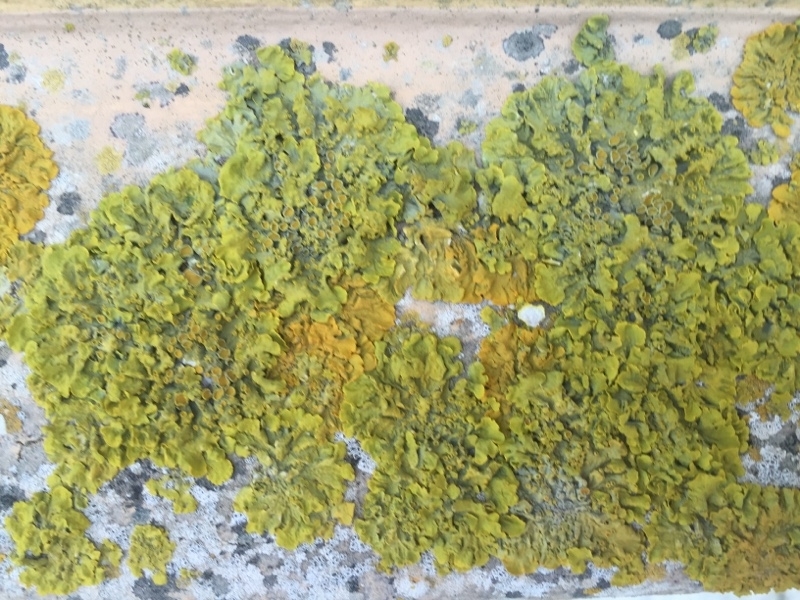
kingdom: Fungi
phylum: Ascomycota
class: Lecanoromycetes
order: Teloschistales
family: Teloschistaceae
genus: Xanthoria
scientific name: Xanthoria parietina
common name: Common orange lichen
